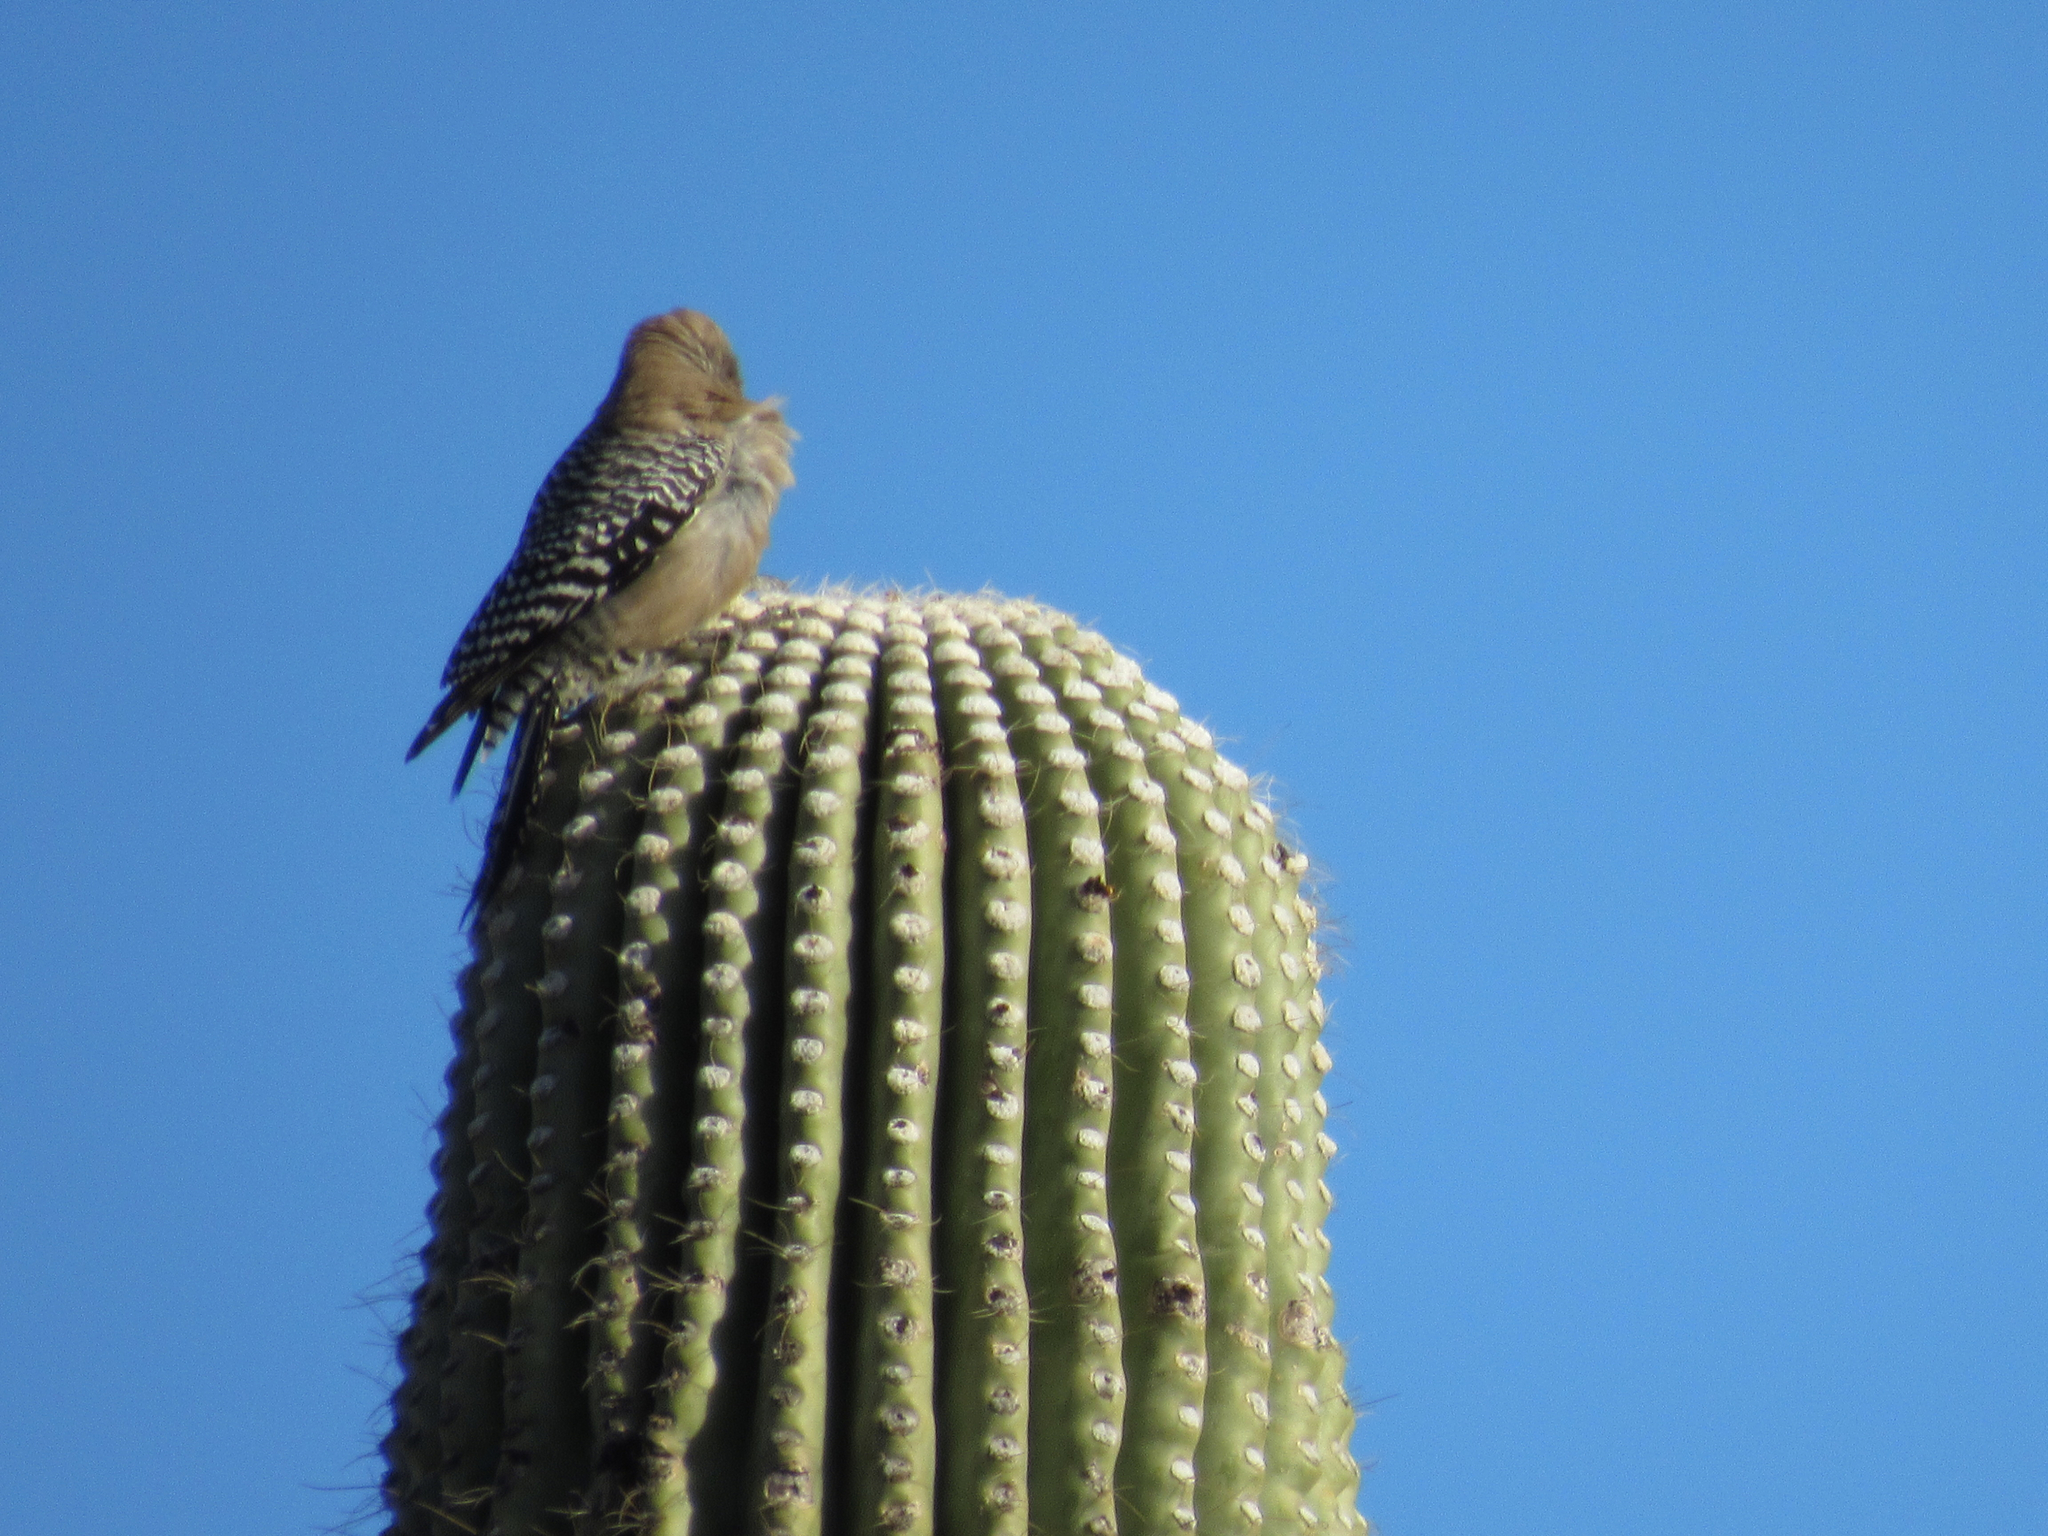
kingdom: Animalia
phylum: Chordata
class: Aves
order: Piciformes
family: Picidae
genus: Melanerpes
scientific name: Melanerpes uropygialis
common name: Gila woodpecker
